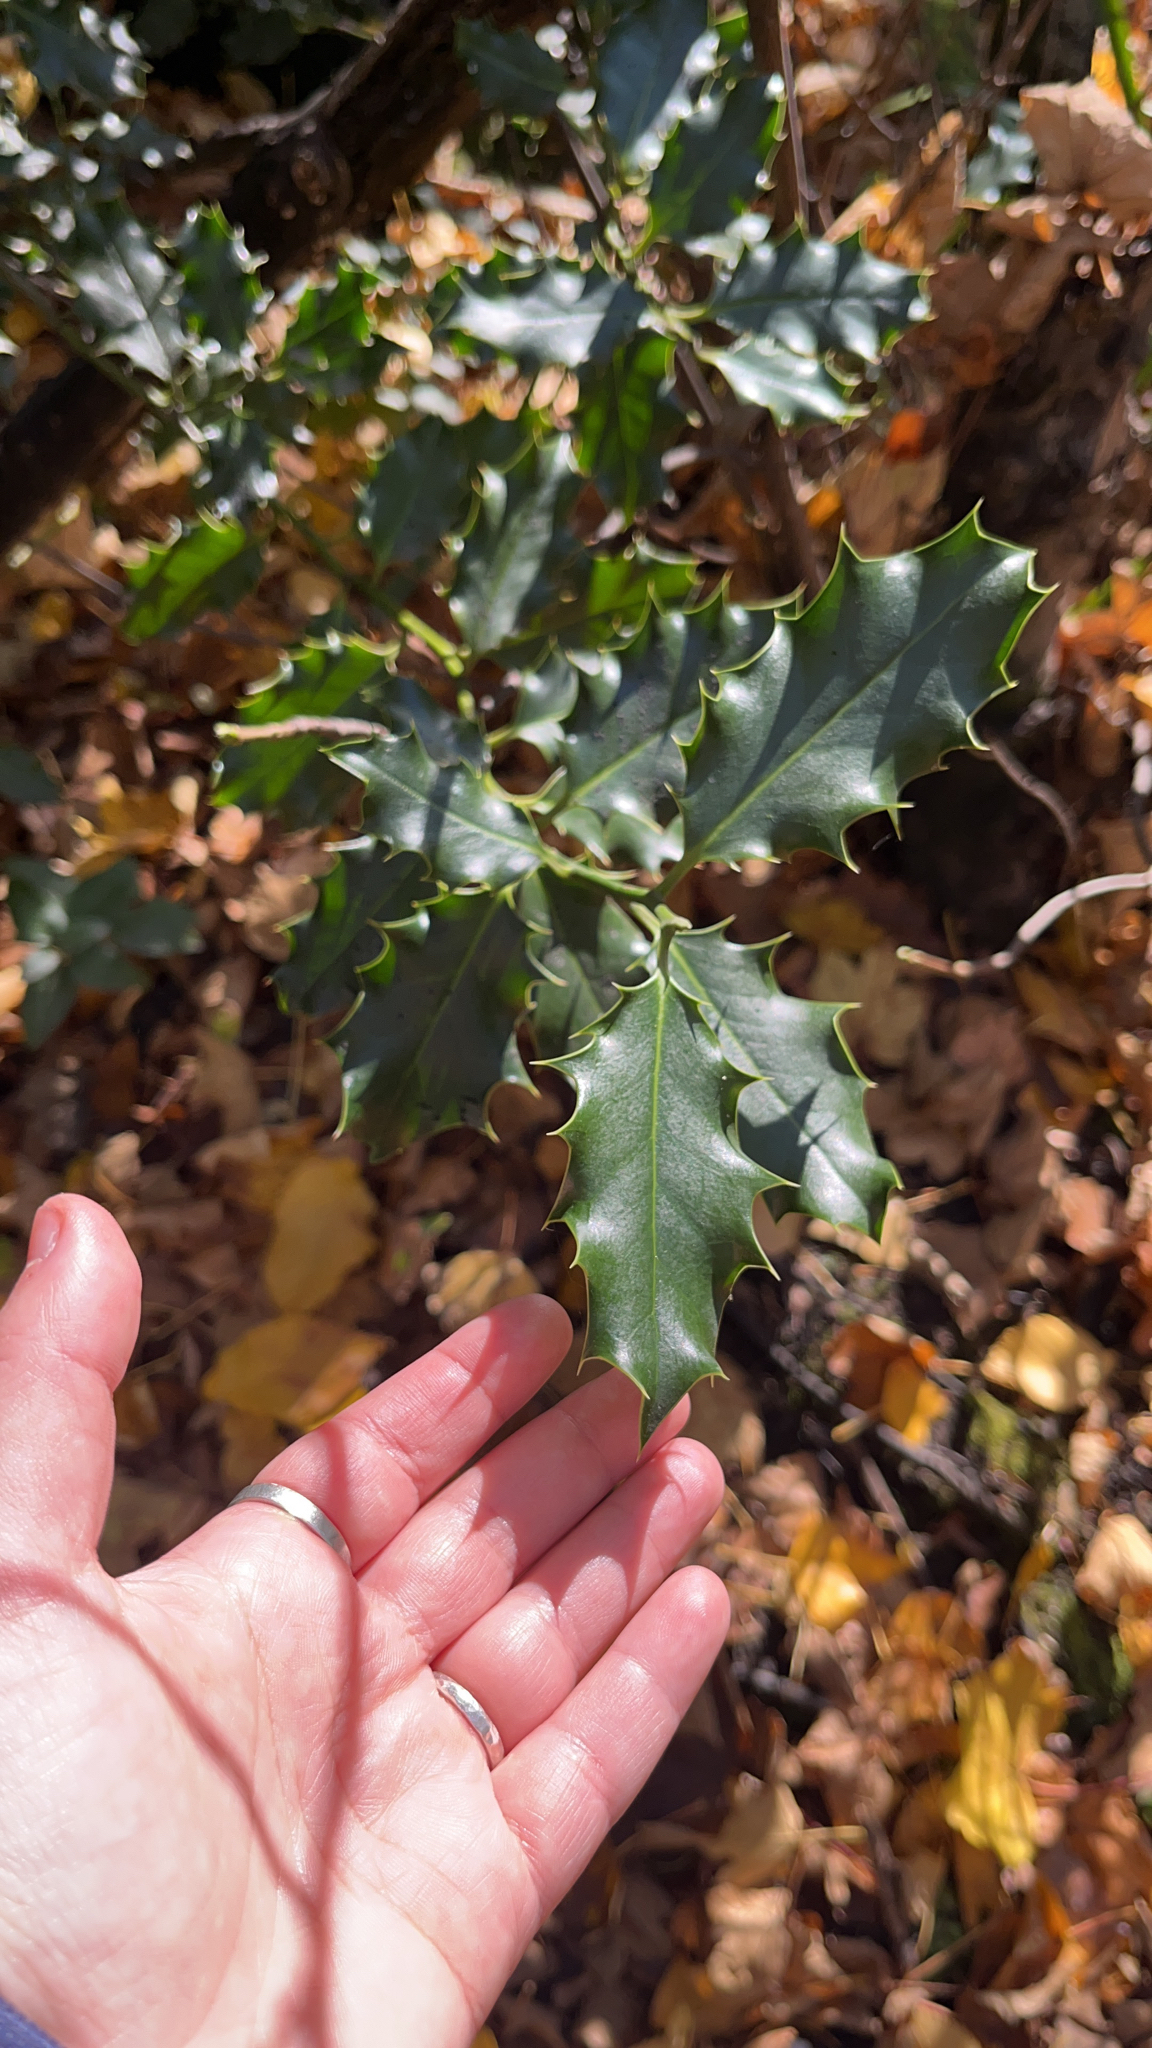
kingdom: Plantae
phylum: Tracheophyta
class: Magnoliopsida
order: Aquifoliales
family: Aquifoliaceae
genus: Ilex
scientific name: Ilex aquifolium
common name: English holly
